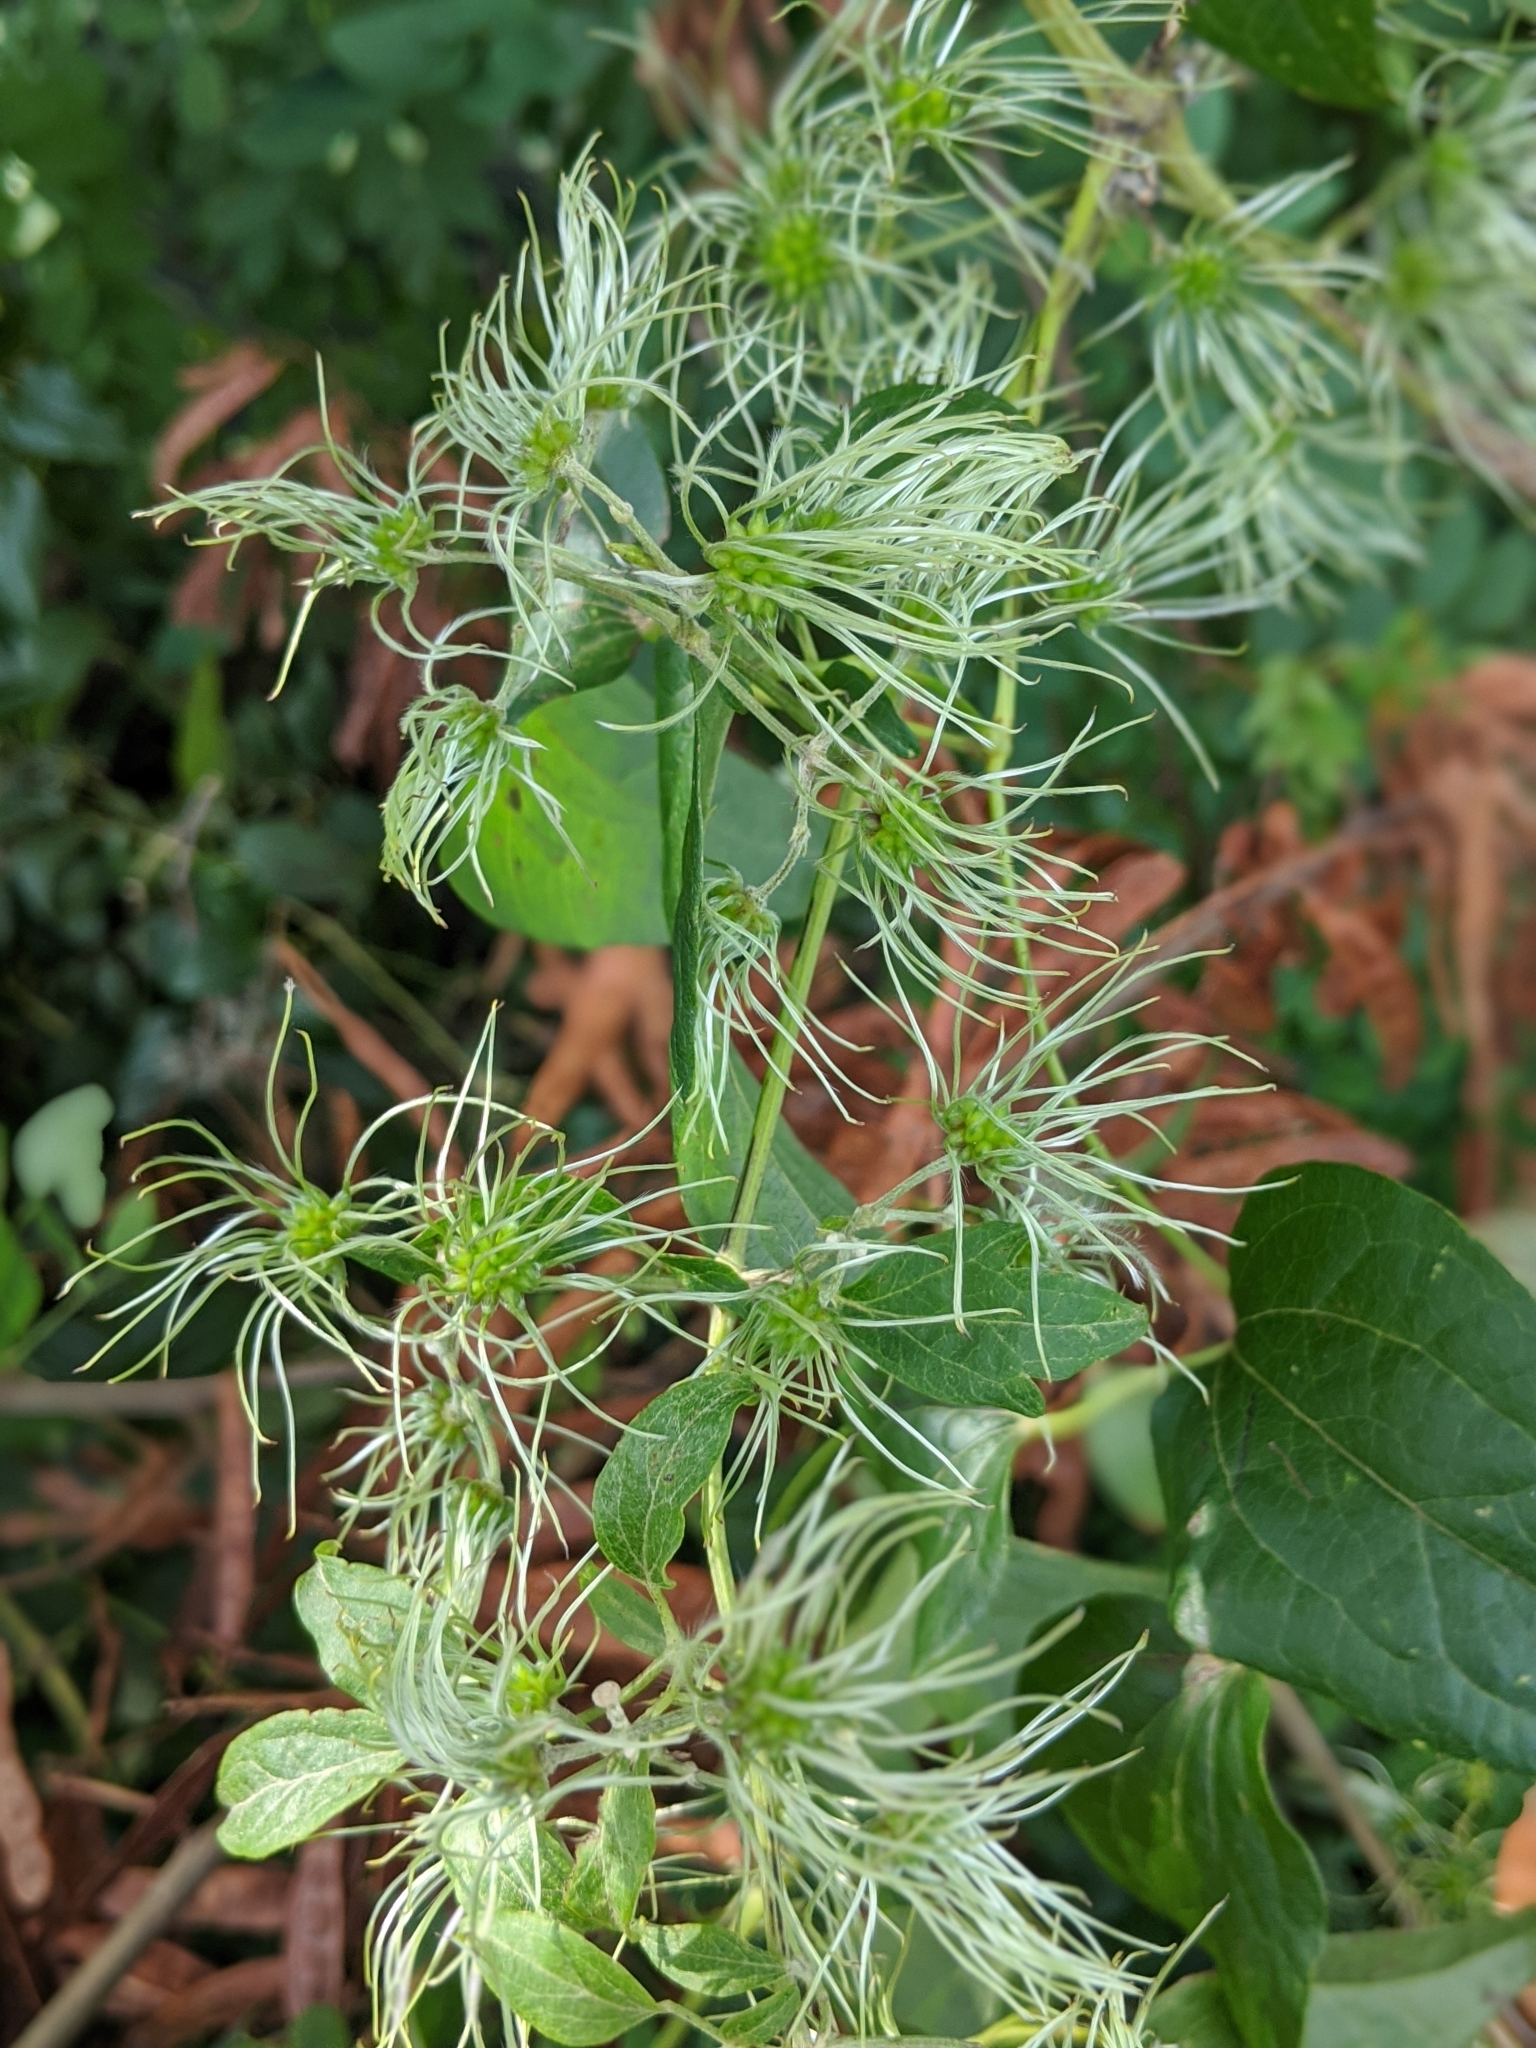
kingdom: Plantae
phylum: Tracheophyta
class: Magnoliopsida
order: Ranunculales
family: Ranunculaceae
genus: Clematis
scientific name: Clematis vitalba
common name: Evergreen clematis
